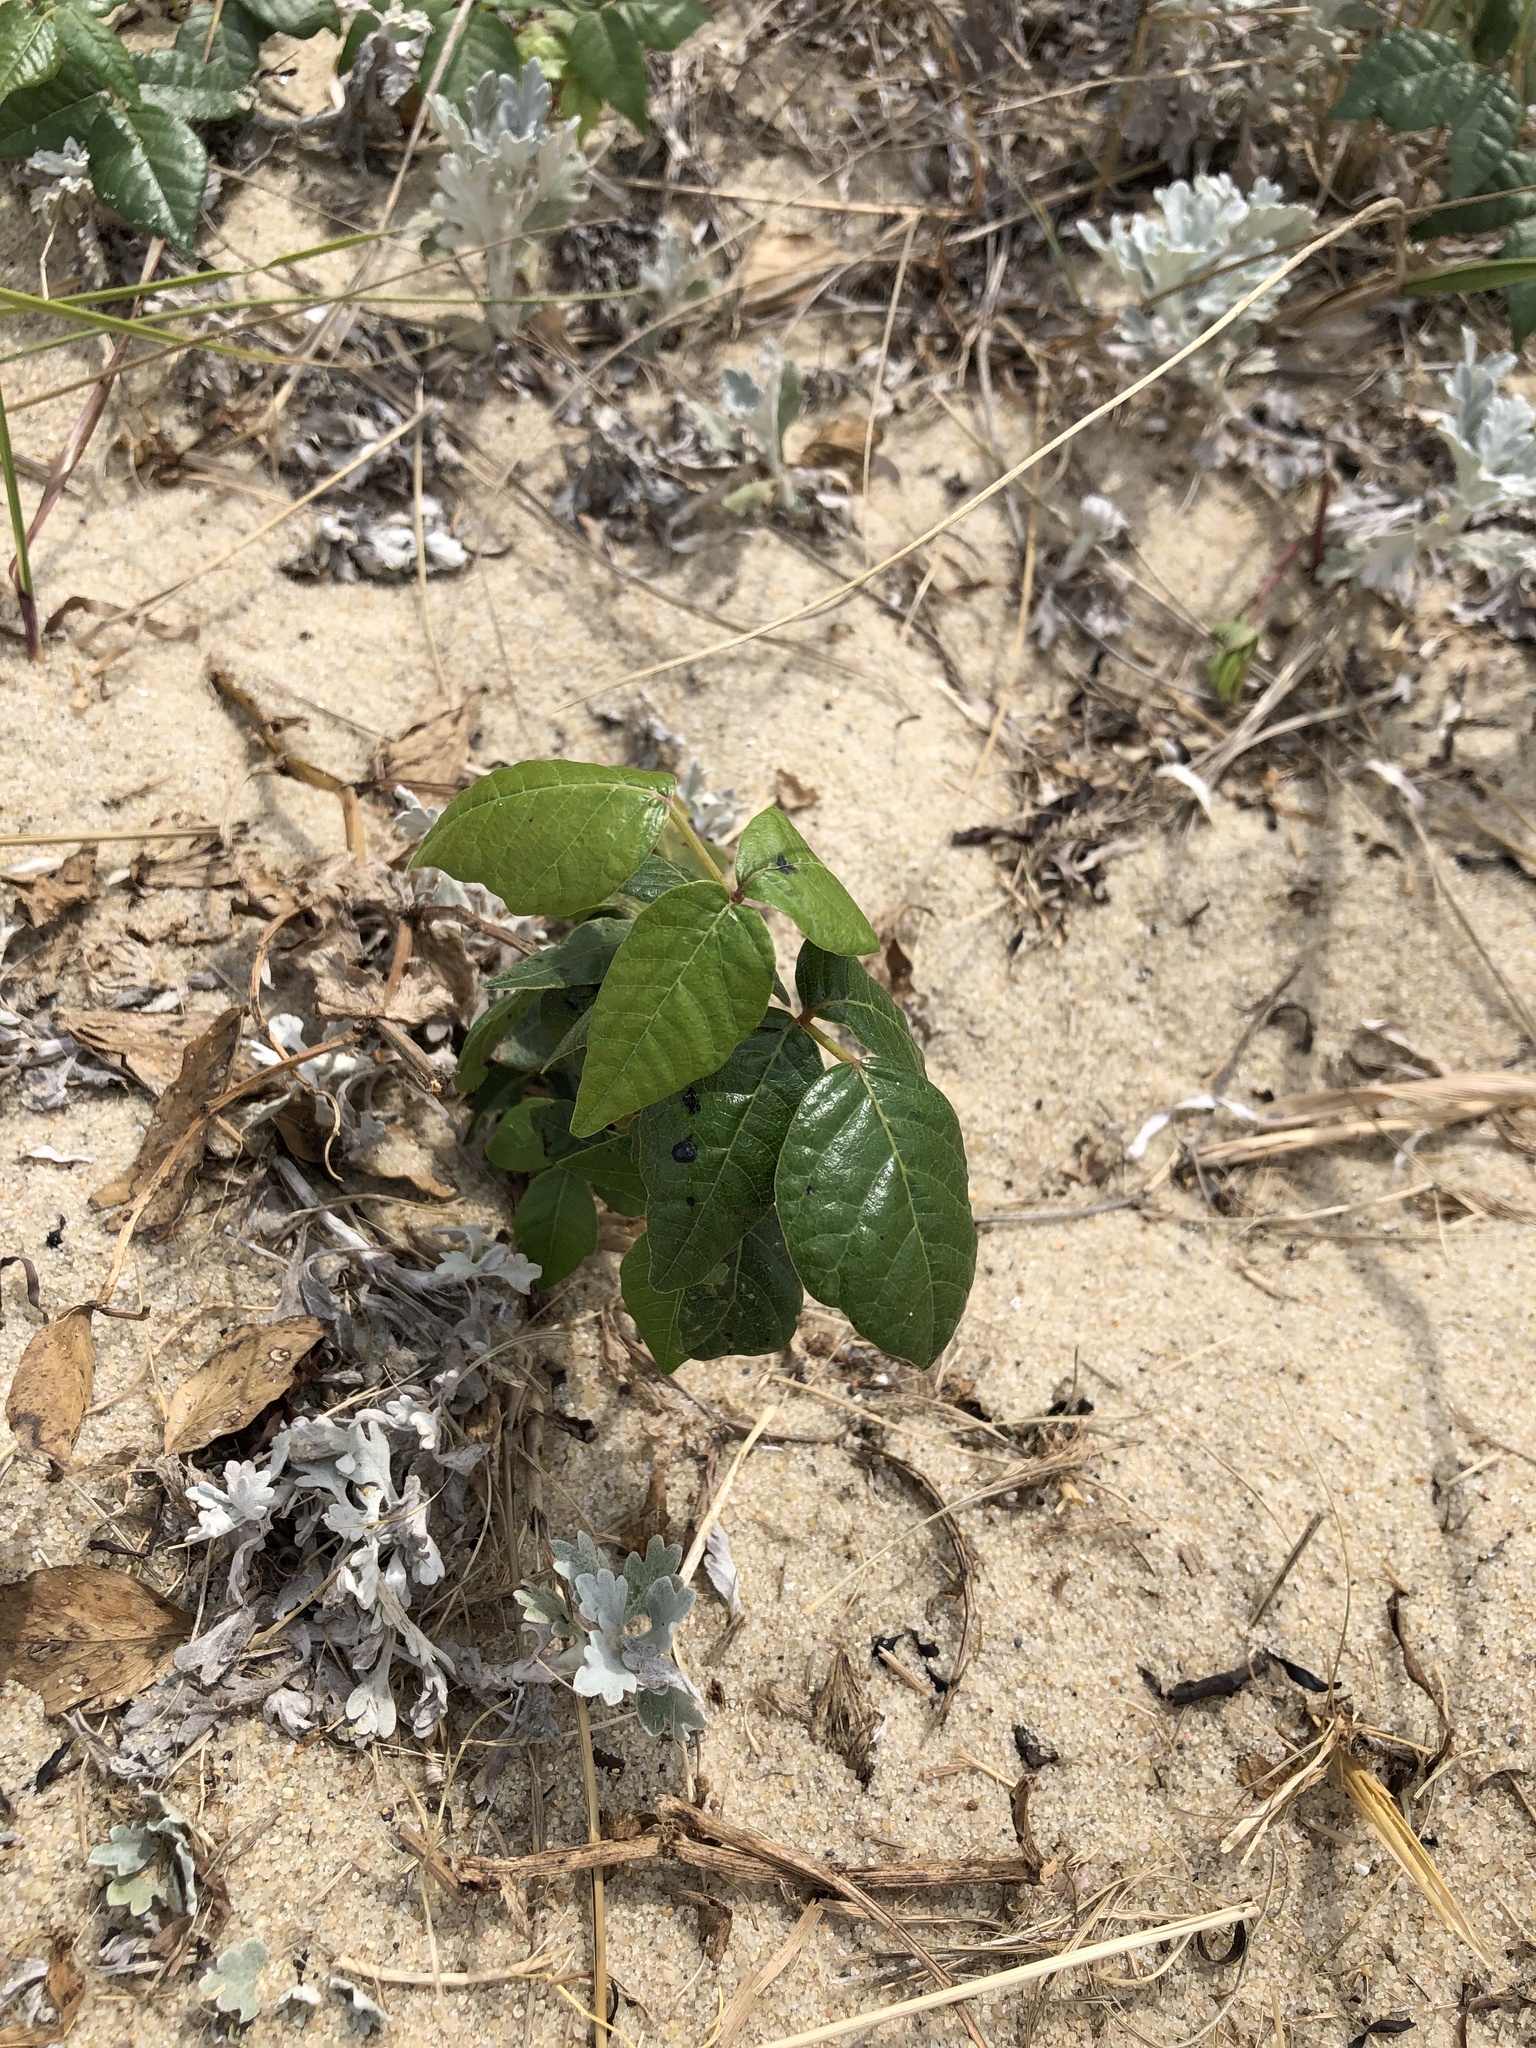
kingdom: Plantae
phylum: Tracheophyta
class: Magnoliopsida
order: Sapindales
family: Anacardiaceae
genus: Toxicodendron
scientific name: Toxicodendron radicans
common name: Poison ivy
